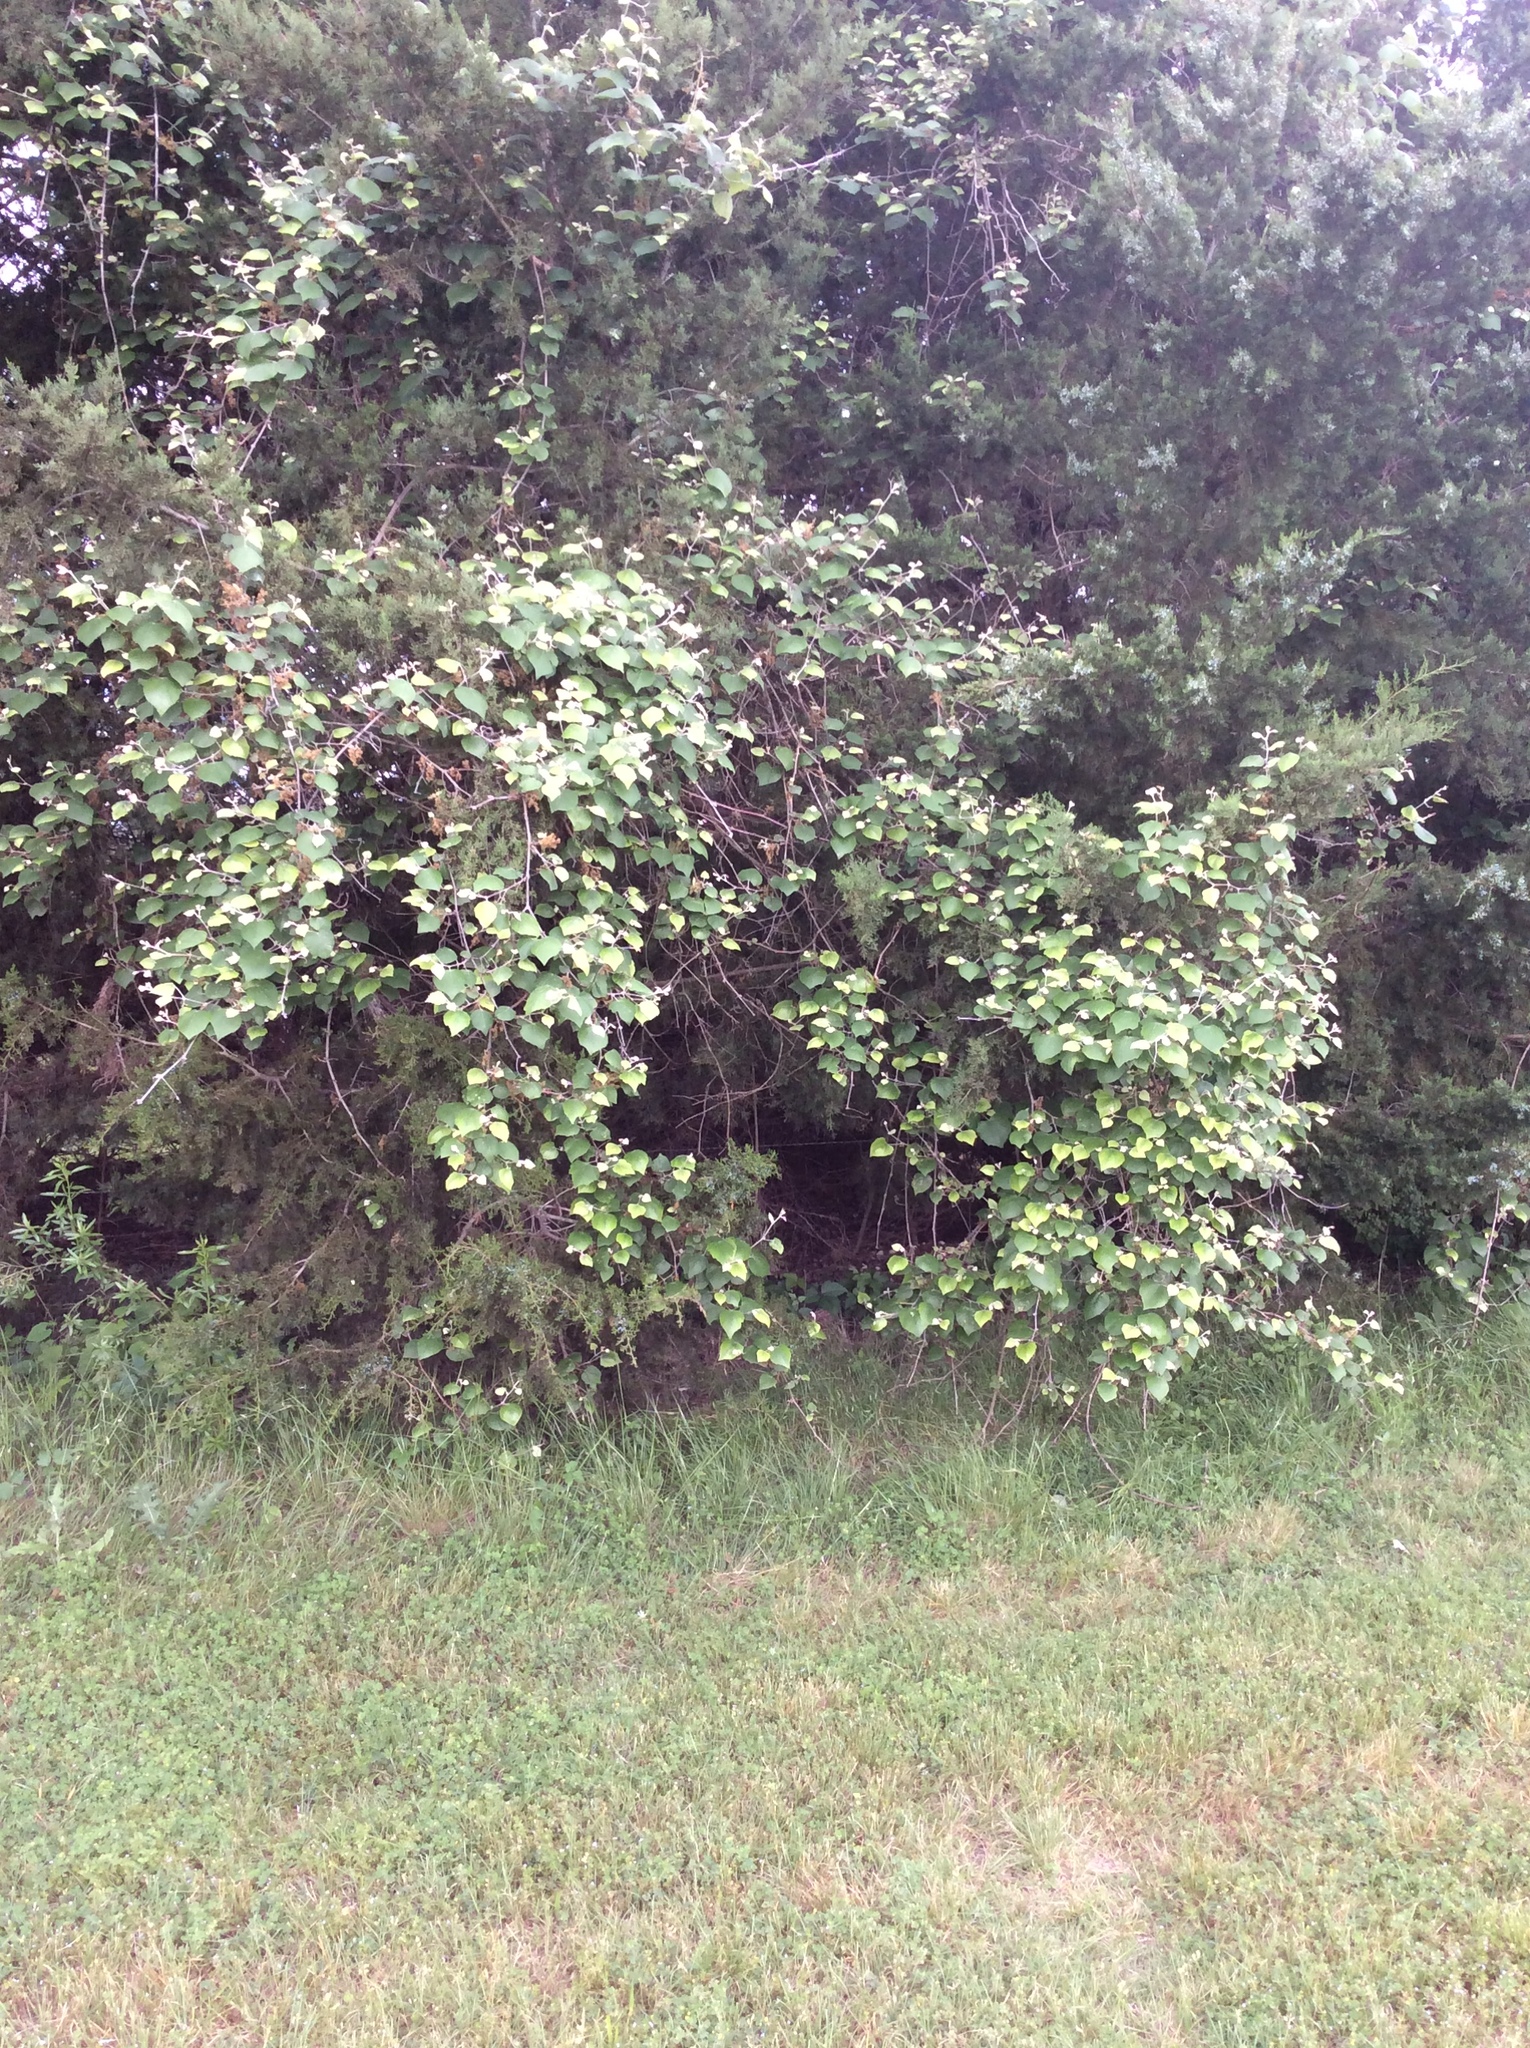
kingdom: Plantae
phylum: Tracheophyta
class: Magnoliopsida
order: Vitales
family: Vitaceae
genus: Vitis
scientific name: Vitis mustangensis
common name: Mustang grape
